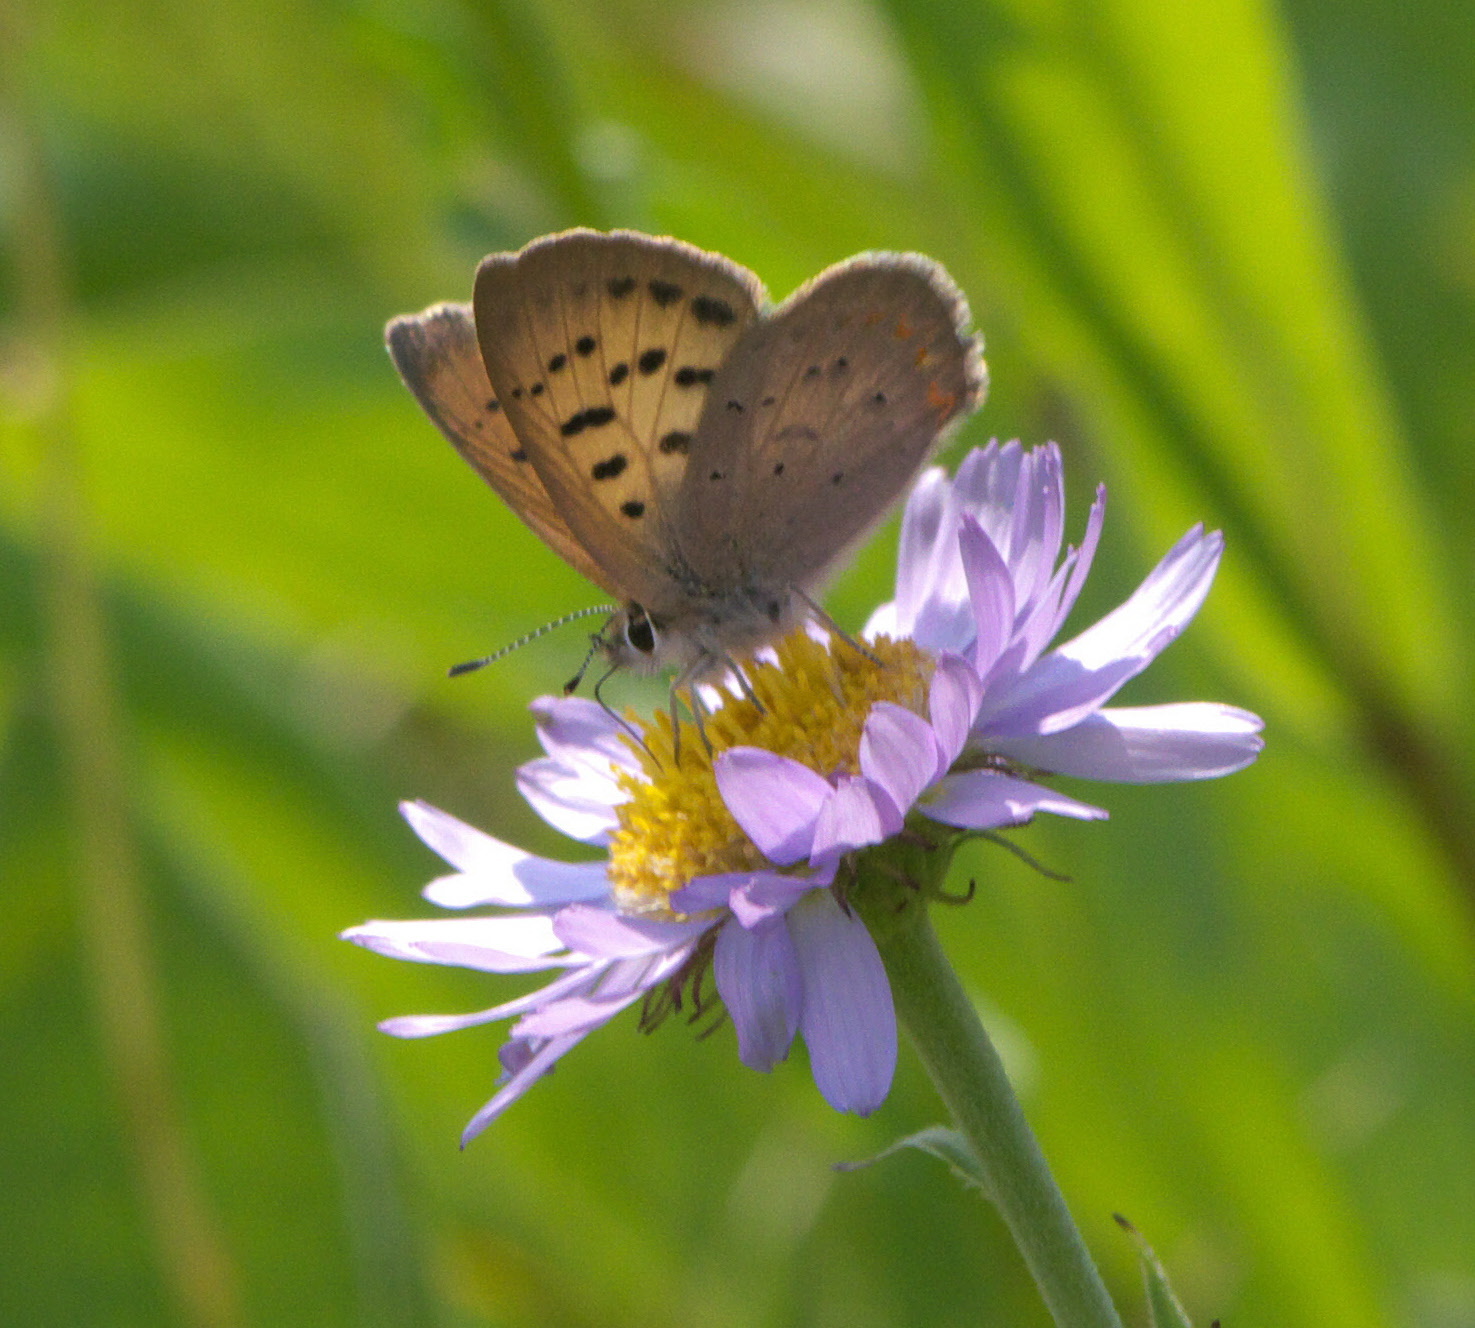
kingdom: Animalia
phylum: Arthropoda
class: Insecta
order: Lepidoptera
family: Lycaenidae
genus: Tharsalea
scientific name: Tharsalea dorcas
